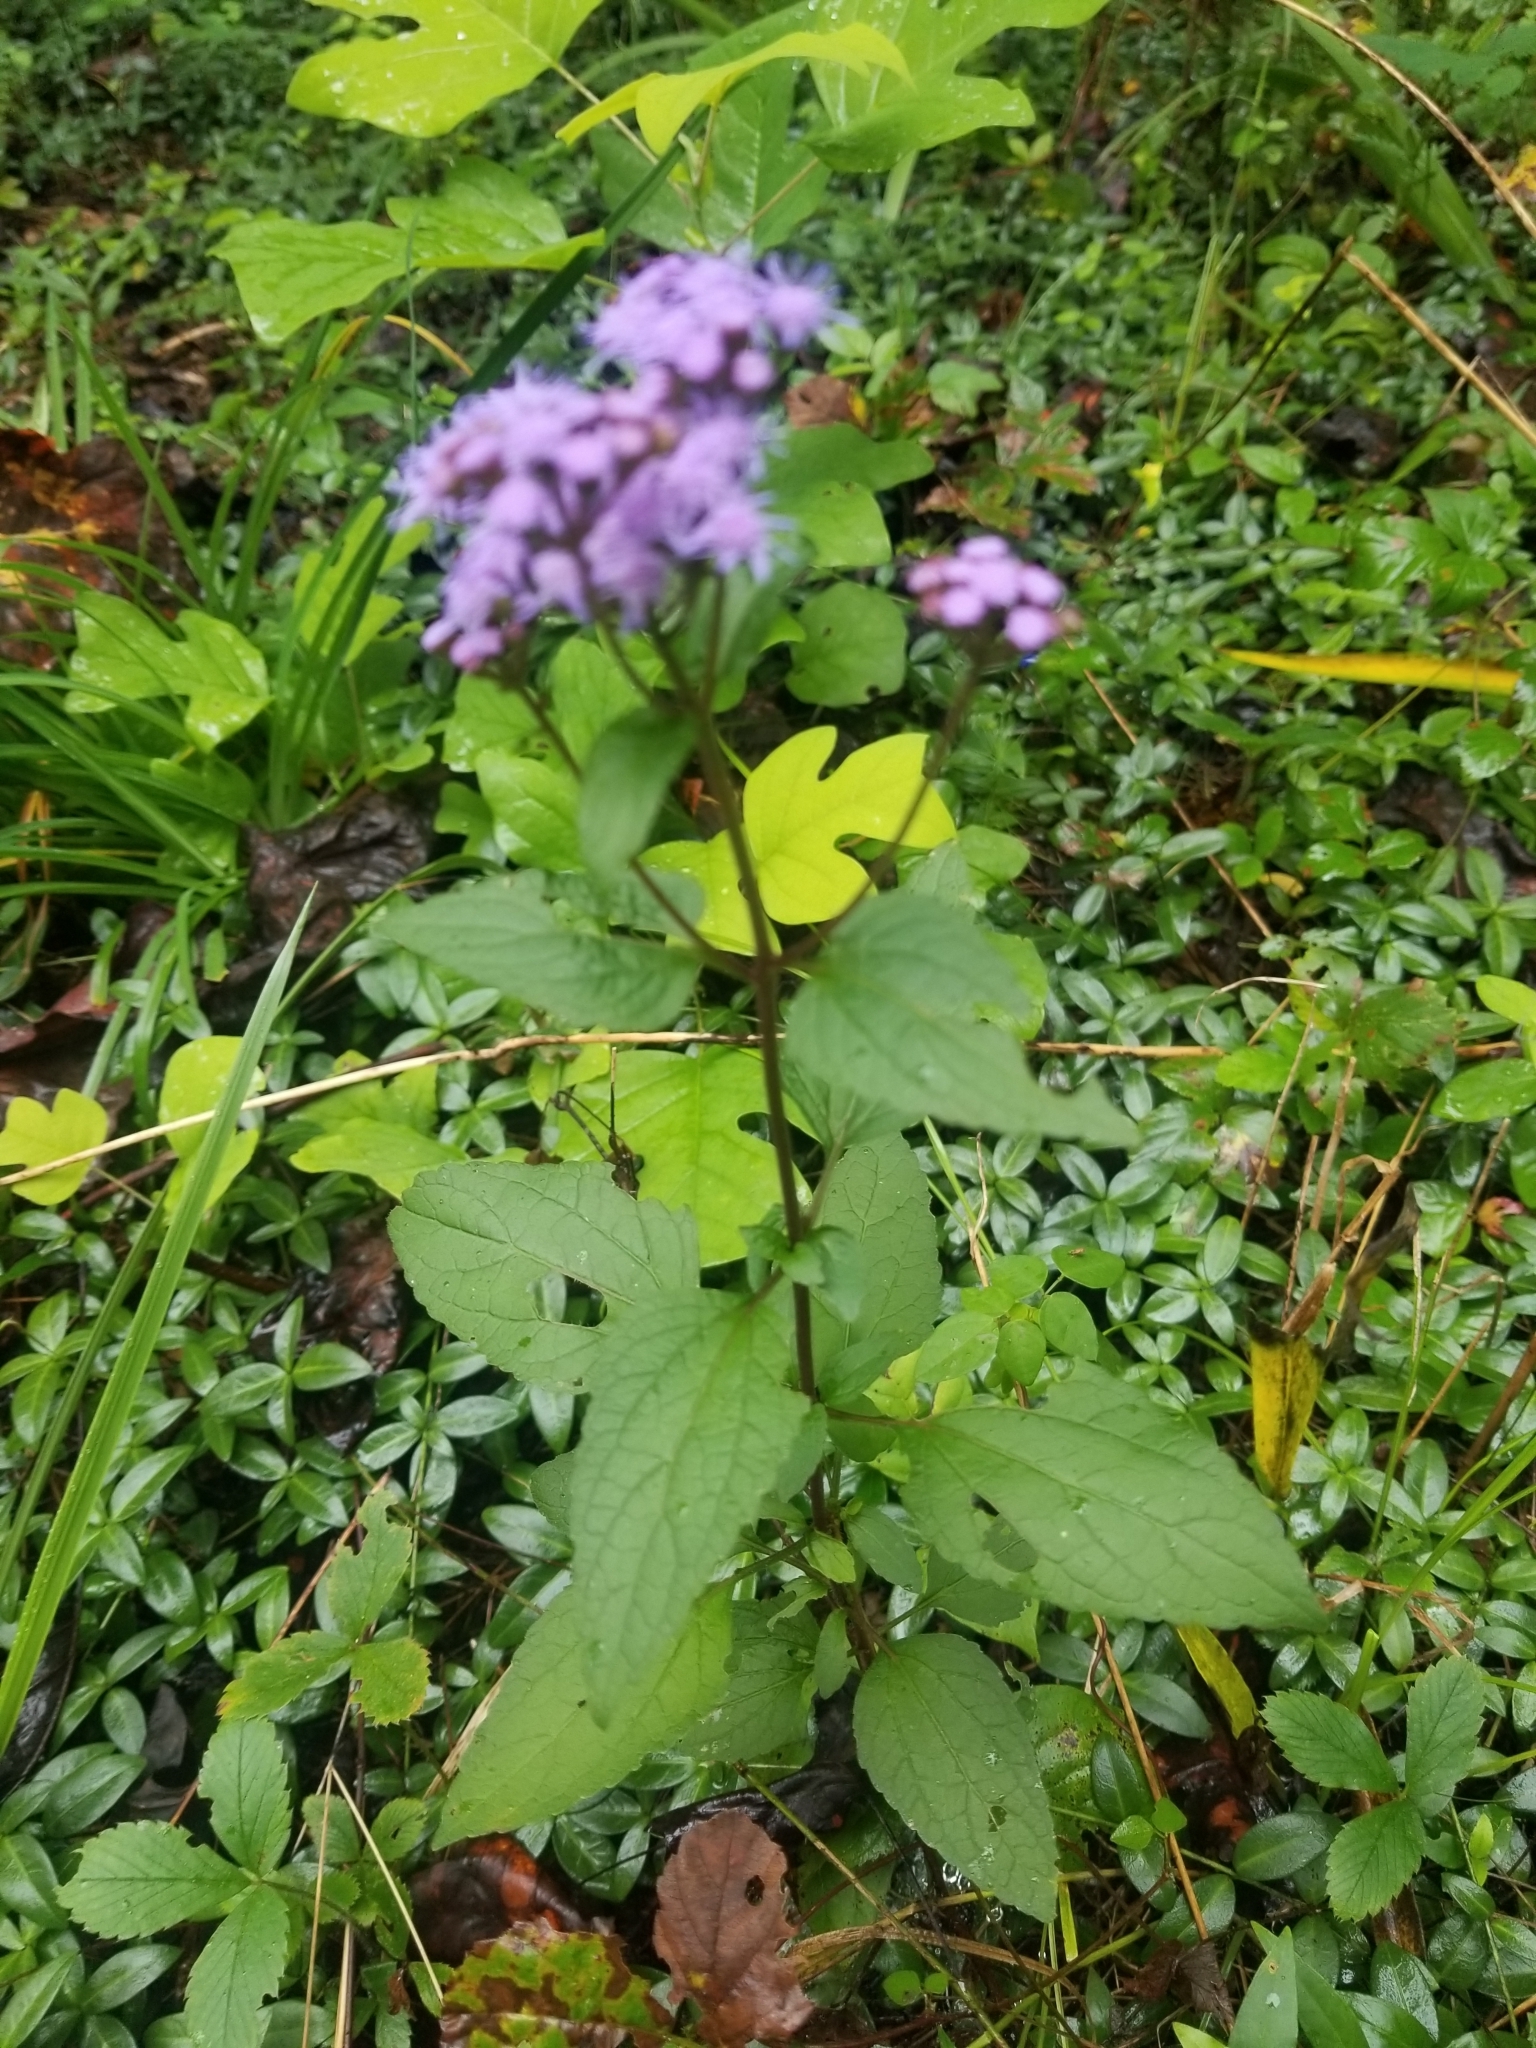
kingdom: Plantae
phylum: Tracheophyta
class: Magnoliopsida
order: Asterales
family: Asteraceae
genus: Conoclinium
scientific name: Conoclinium coelestinum
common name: Blue mistflower
